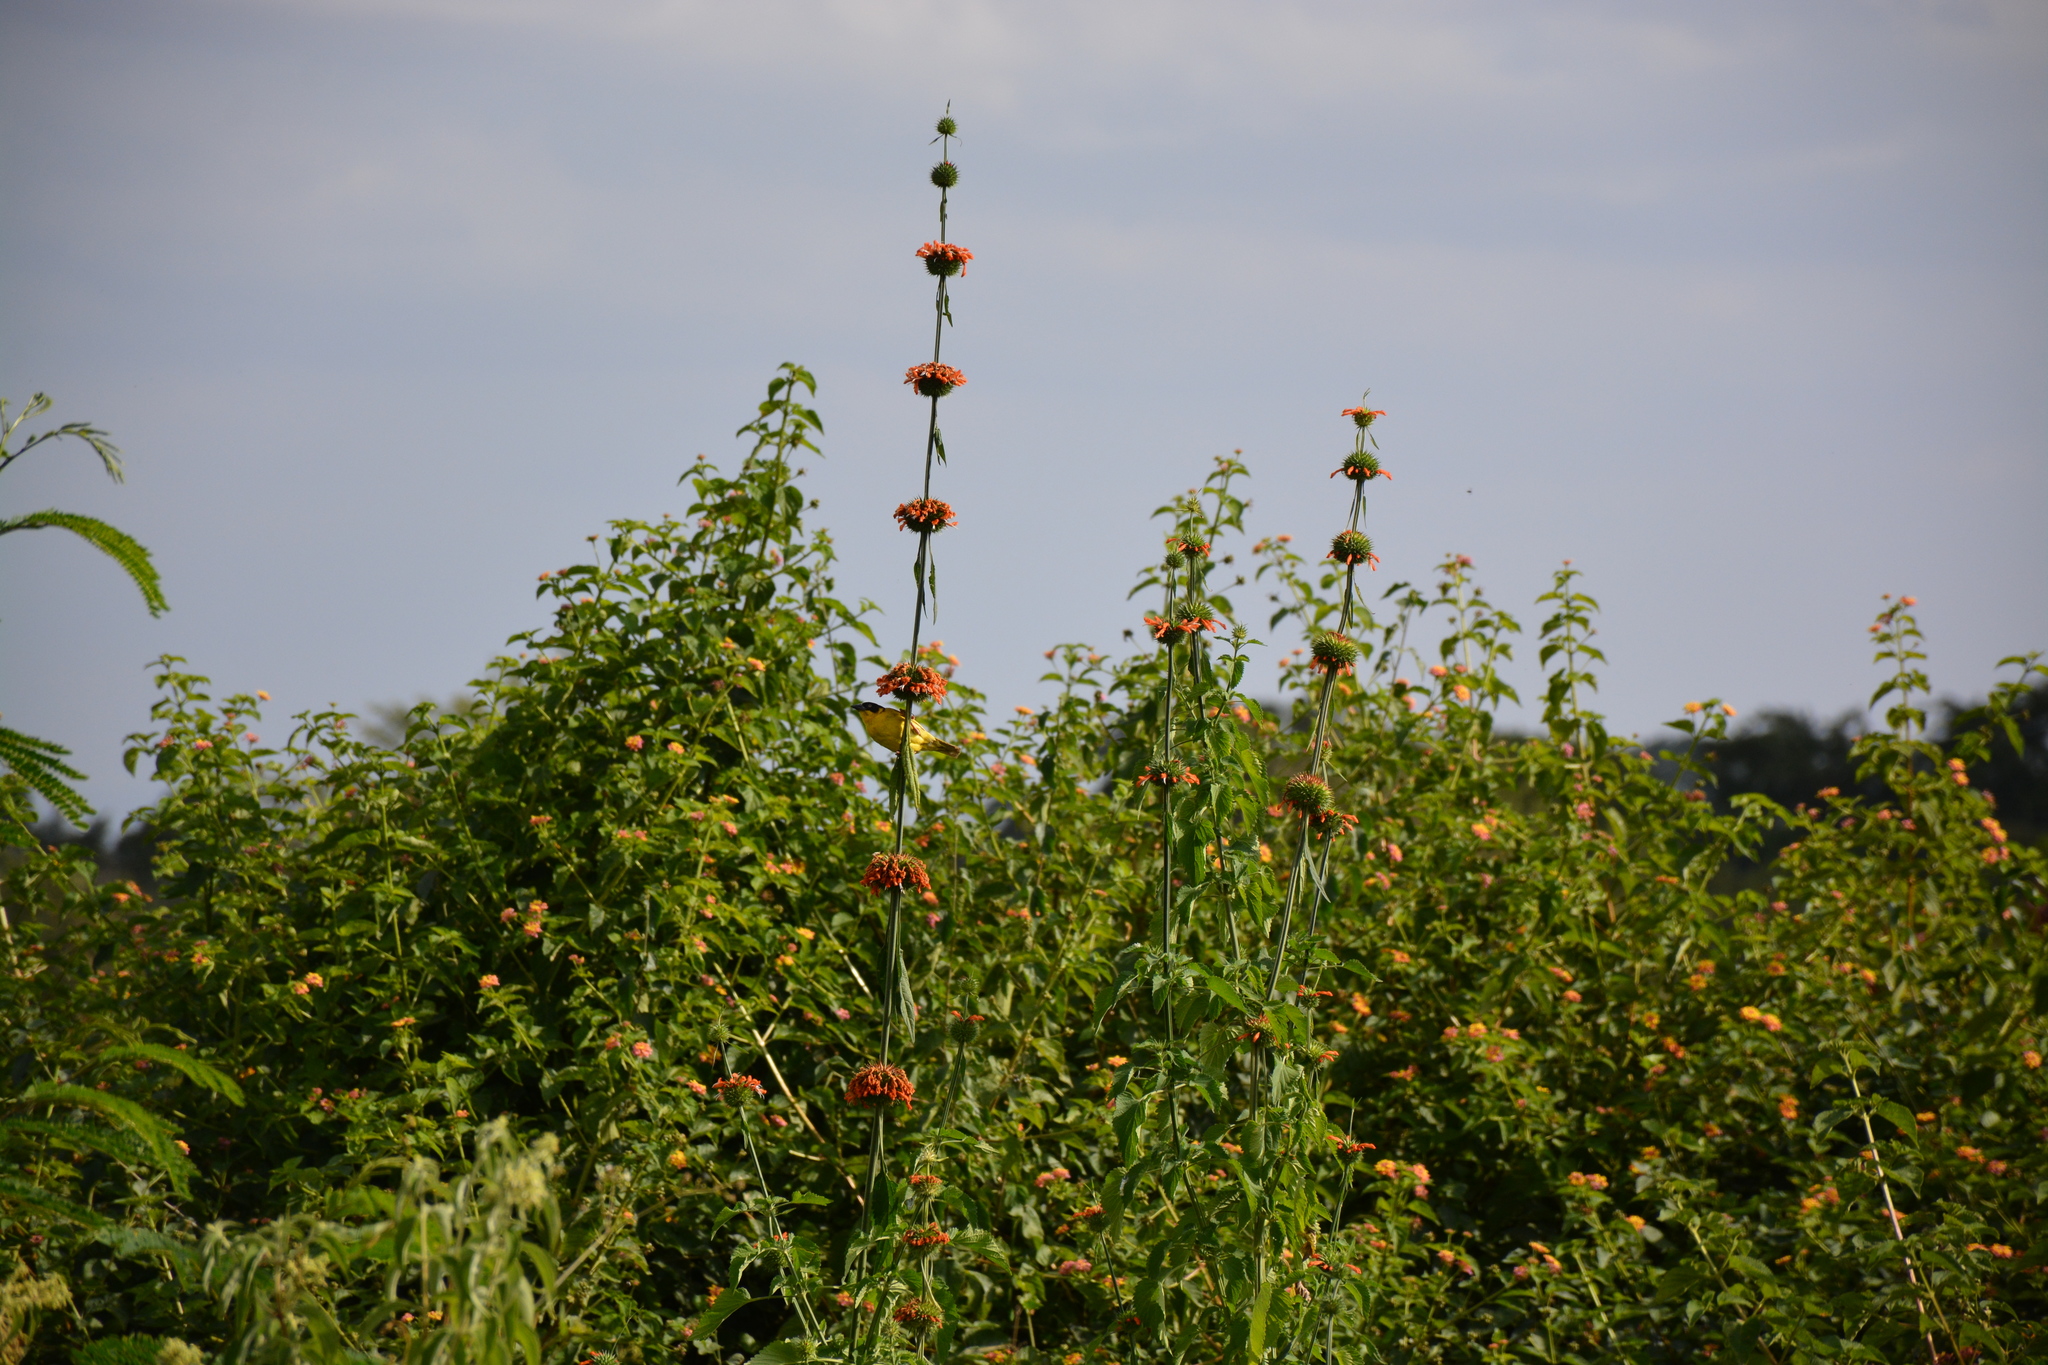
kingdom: Animalia
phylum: Chordata
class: Aves
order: Passeriformes
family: Ploceidae
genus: Ploceus
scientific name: Ploceus baglafecht
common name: Baglafecht weaver
